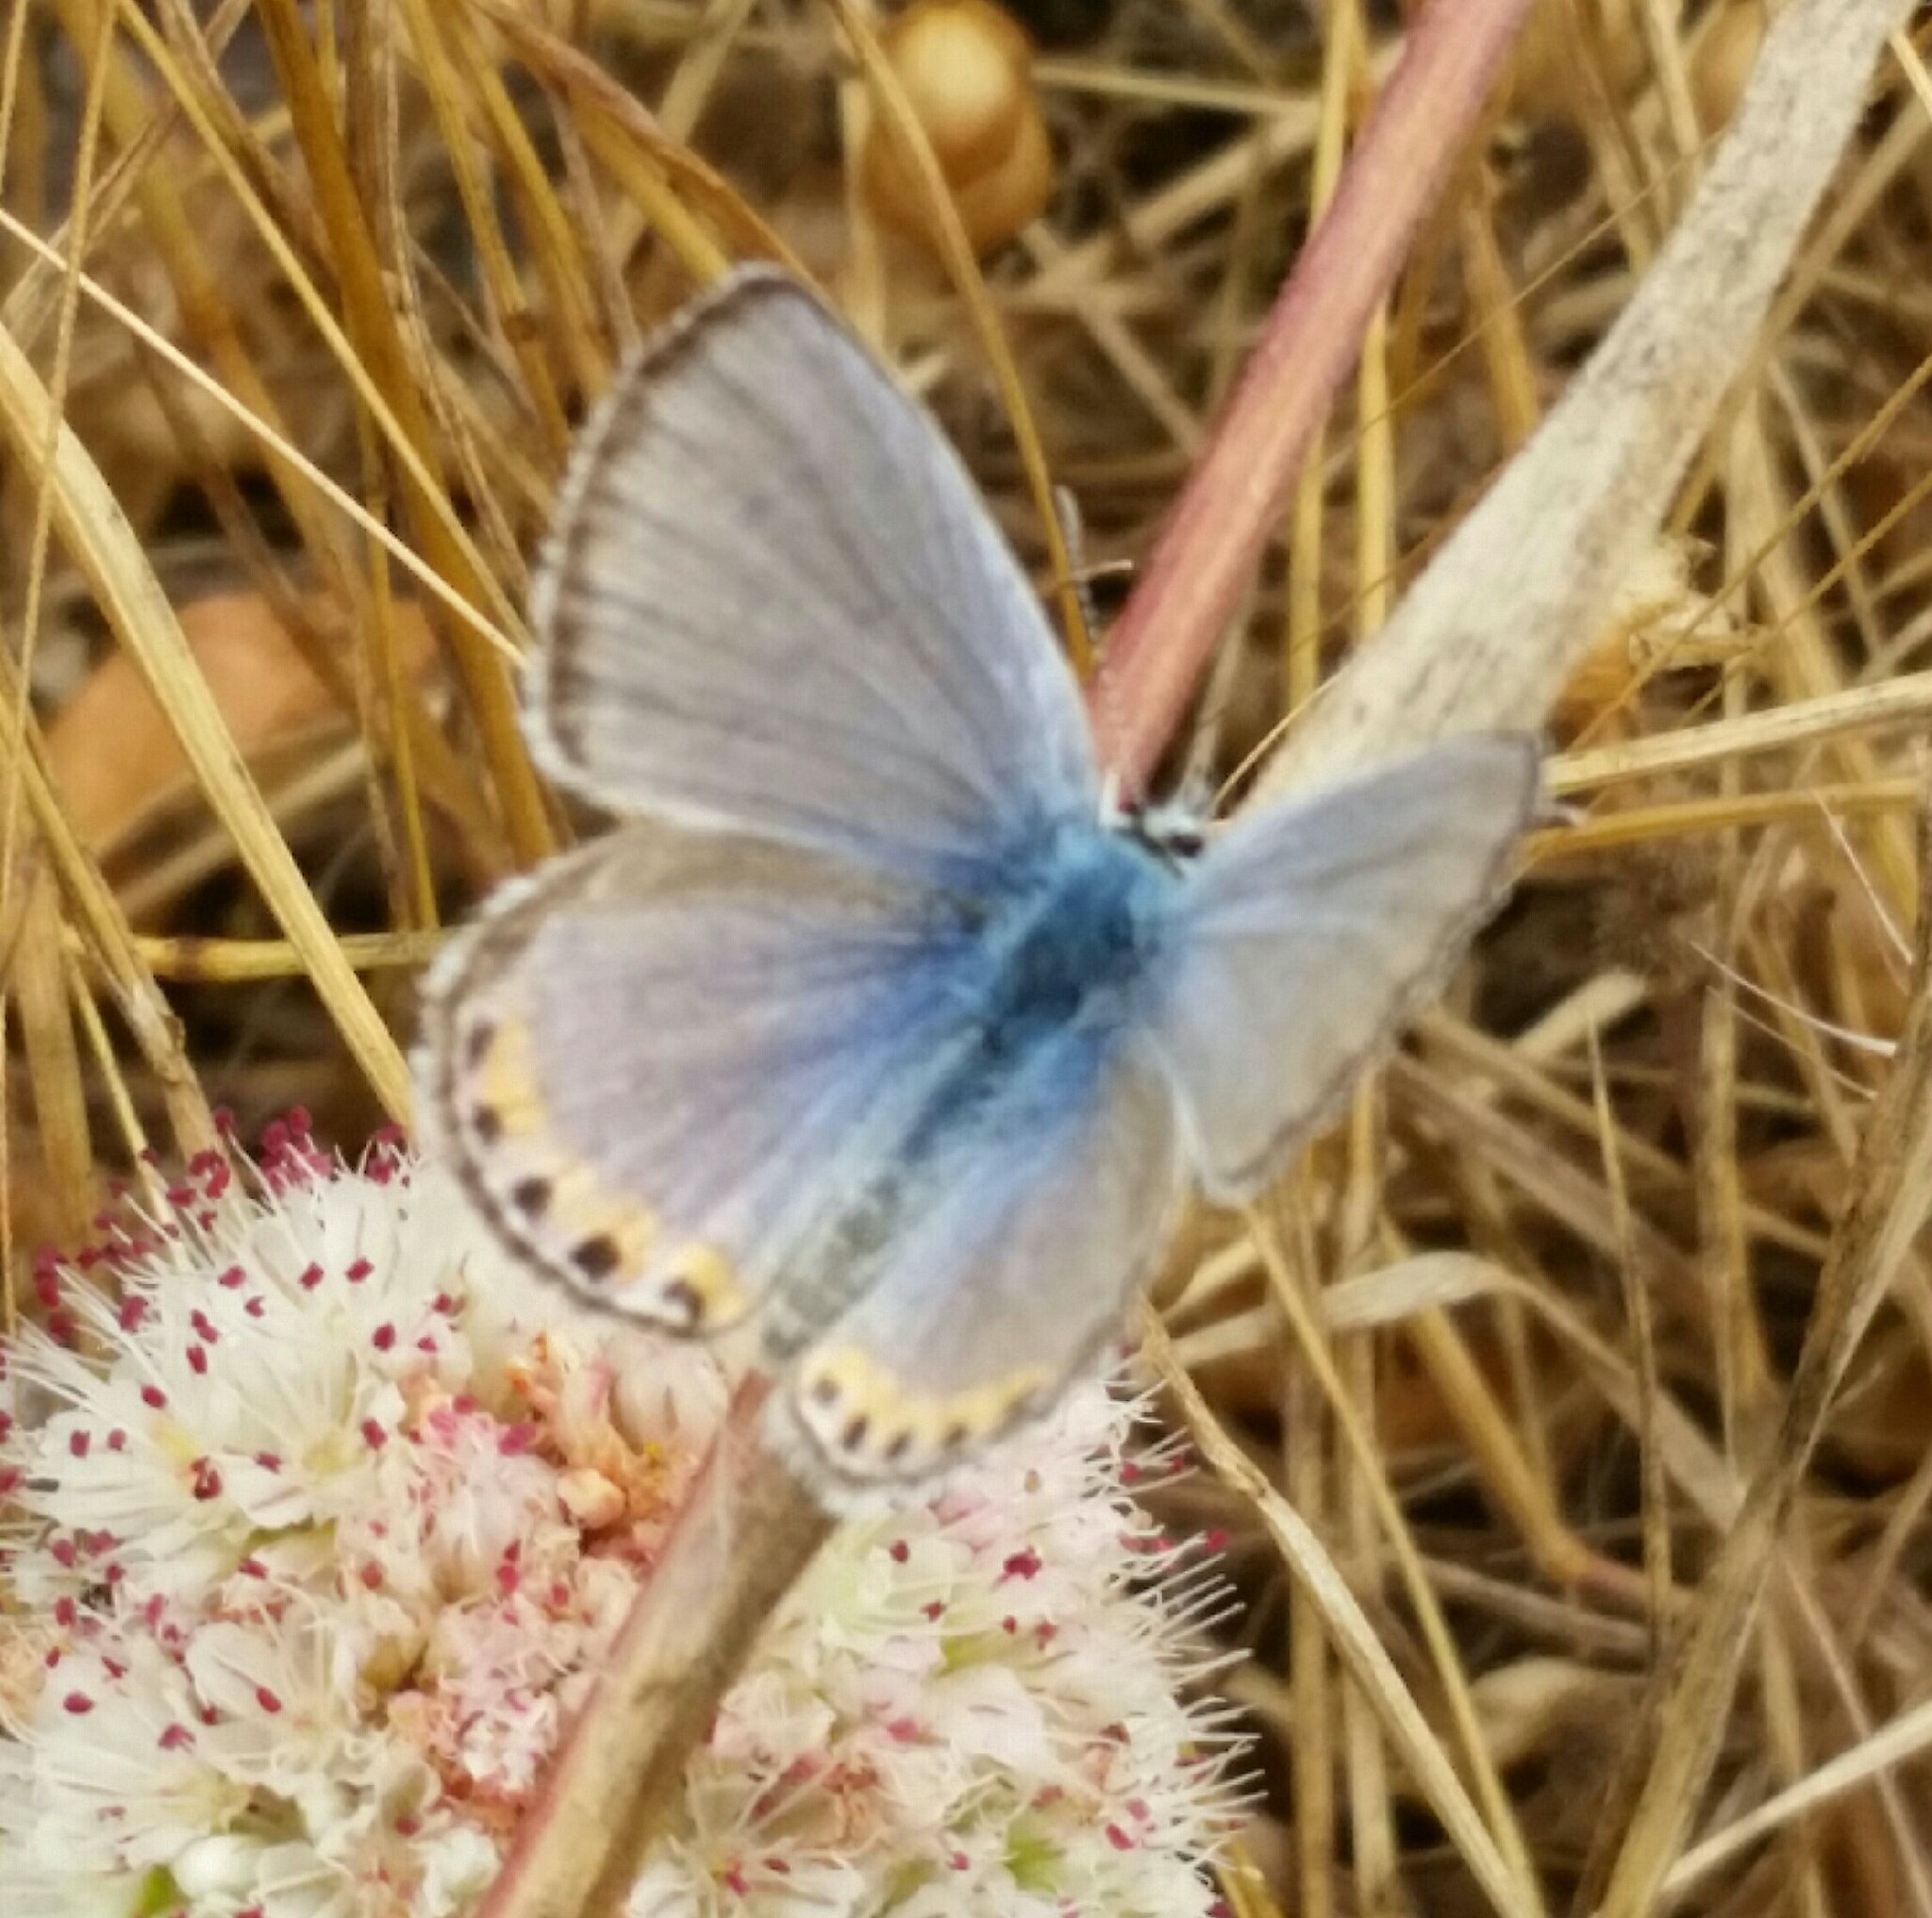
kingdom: Animalia
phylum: Arthropoda
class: Insecta
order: Lepidoptera
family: Lycaenidae
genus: Icaricia
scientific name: Icaricia acmon
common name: Acmon blue
